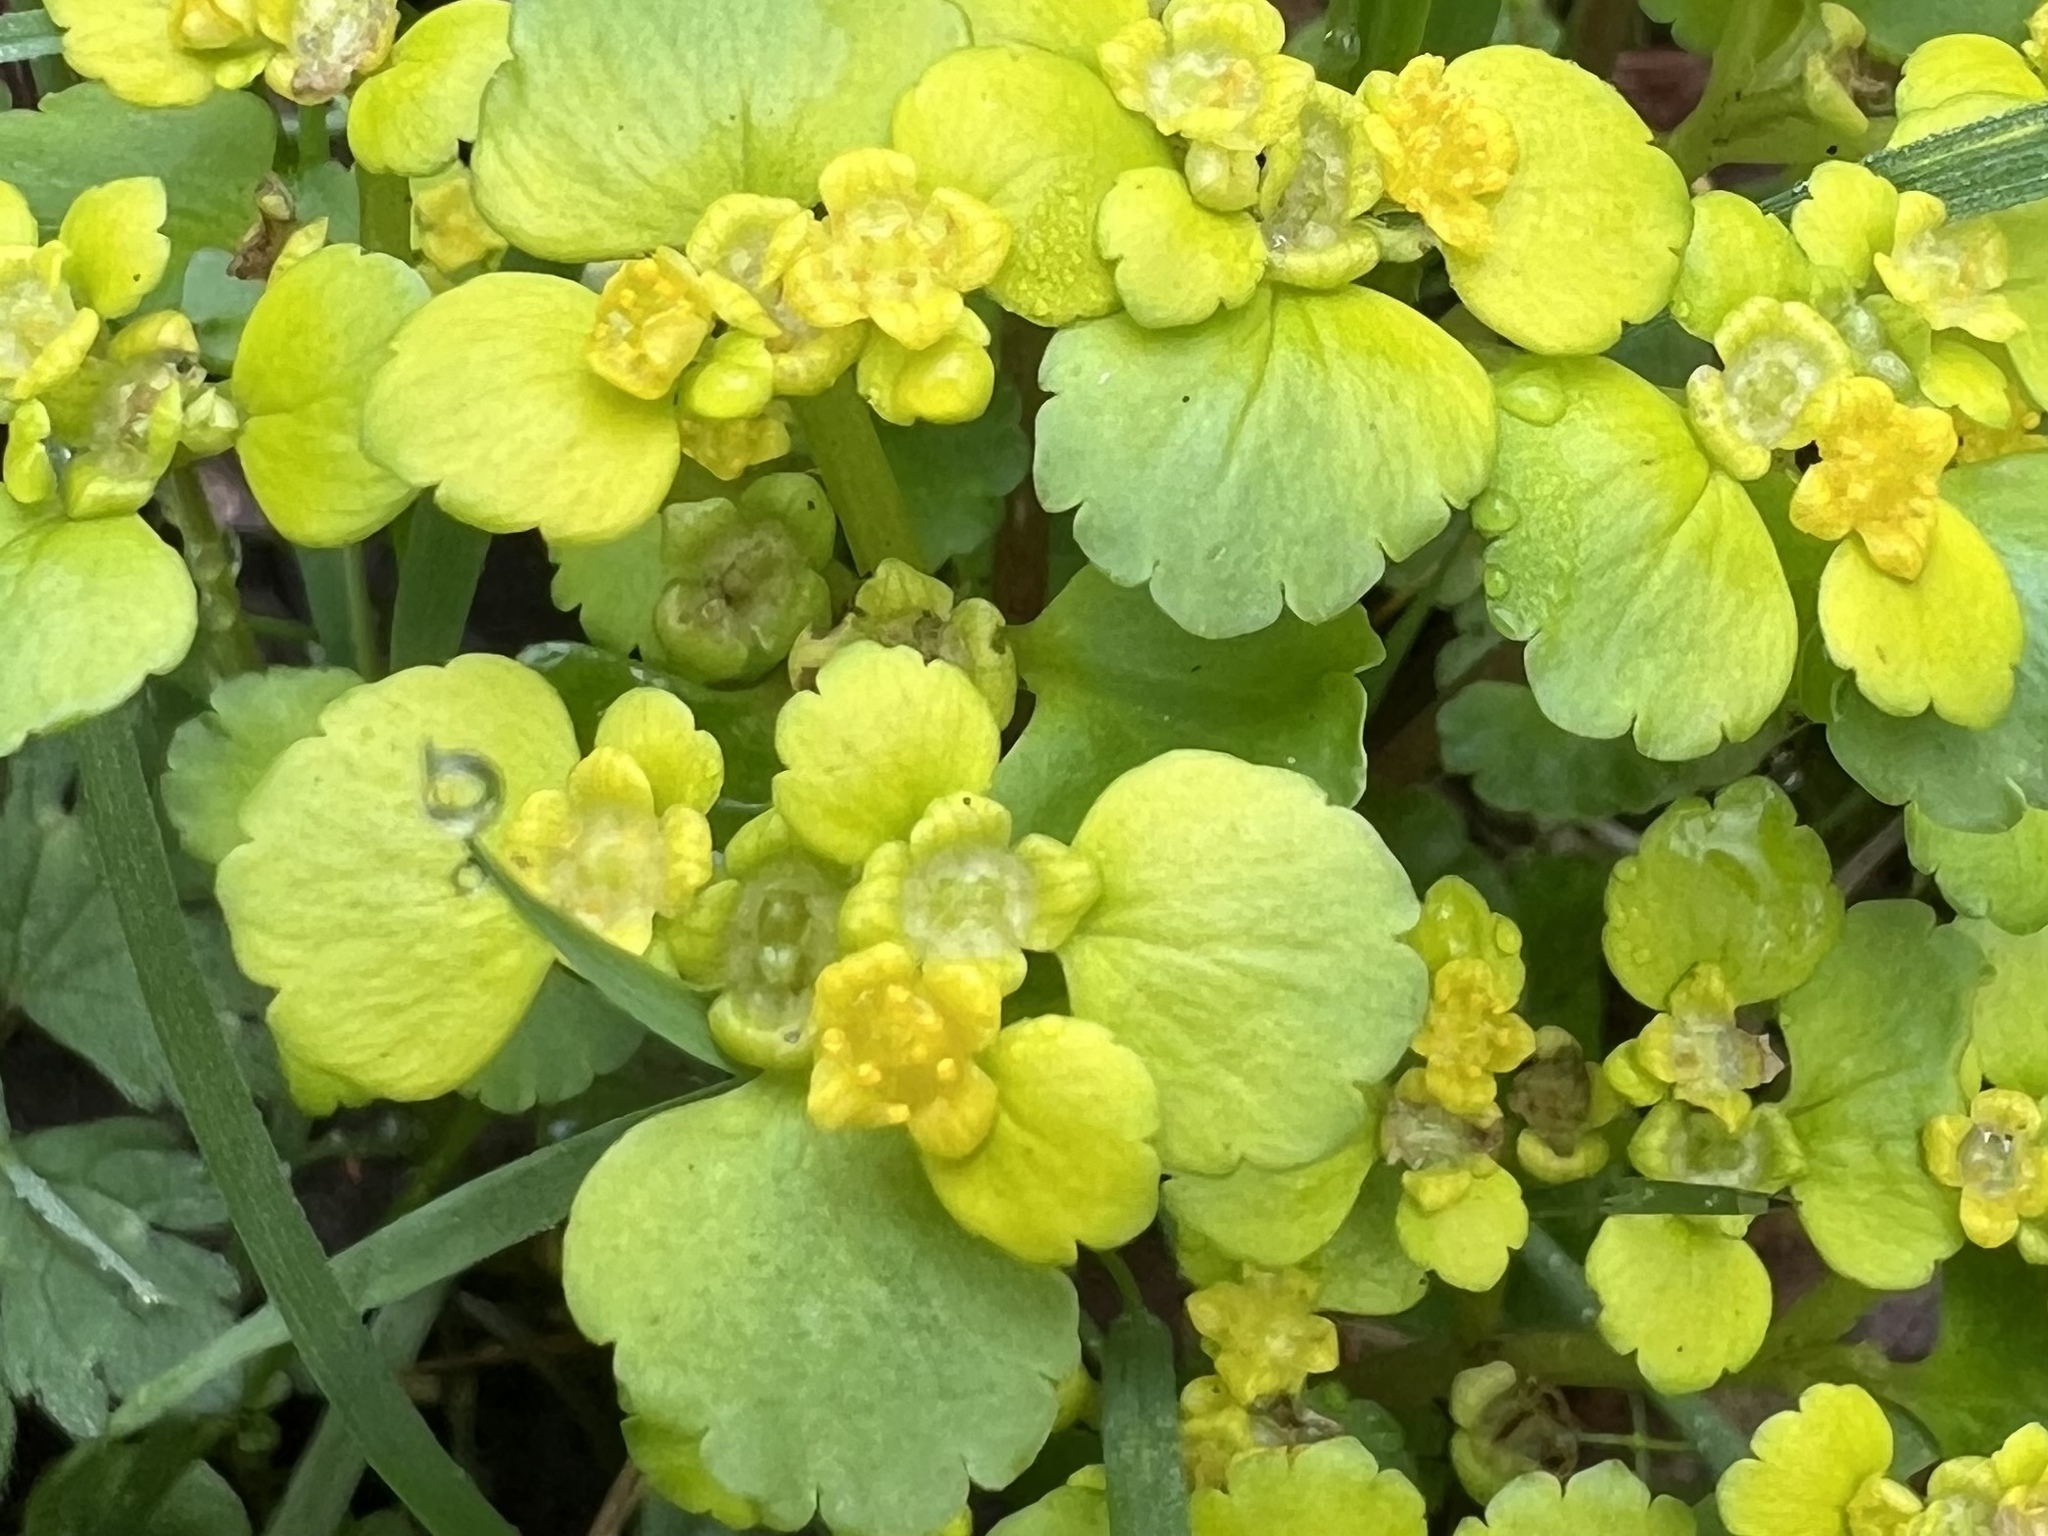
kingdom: Plantae
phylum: Tracheophyta
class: Magnoliopsida
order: Saxifragales
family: Saxifragaceae
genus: Chrysosplenium
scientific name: Chrysosplenium alternifolium
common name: Alternate-leaved golden-saxifrage
